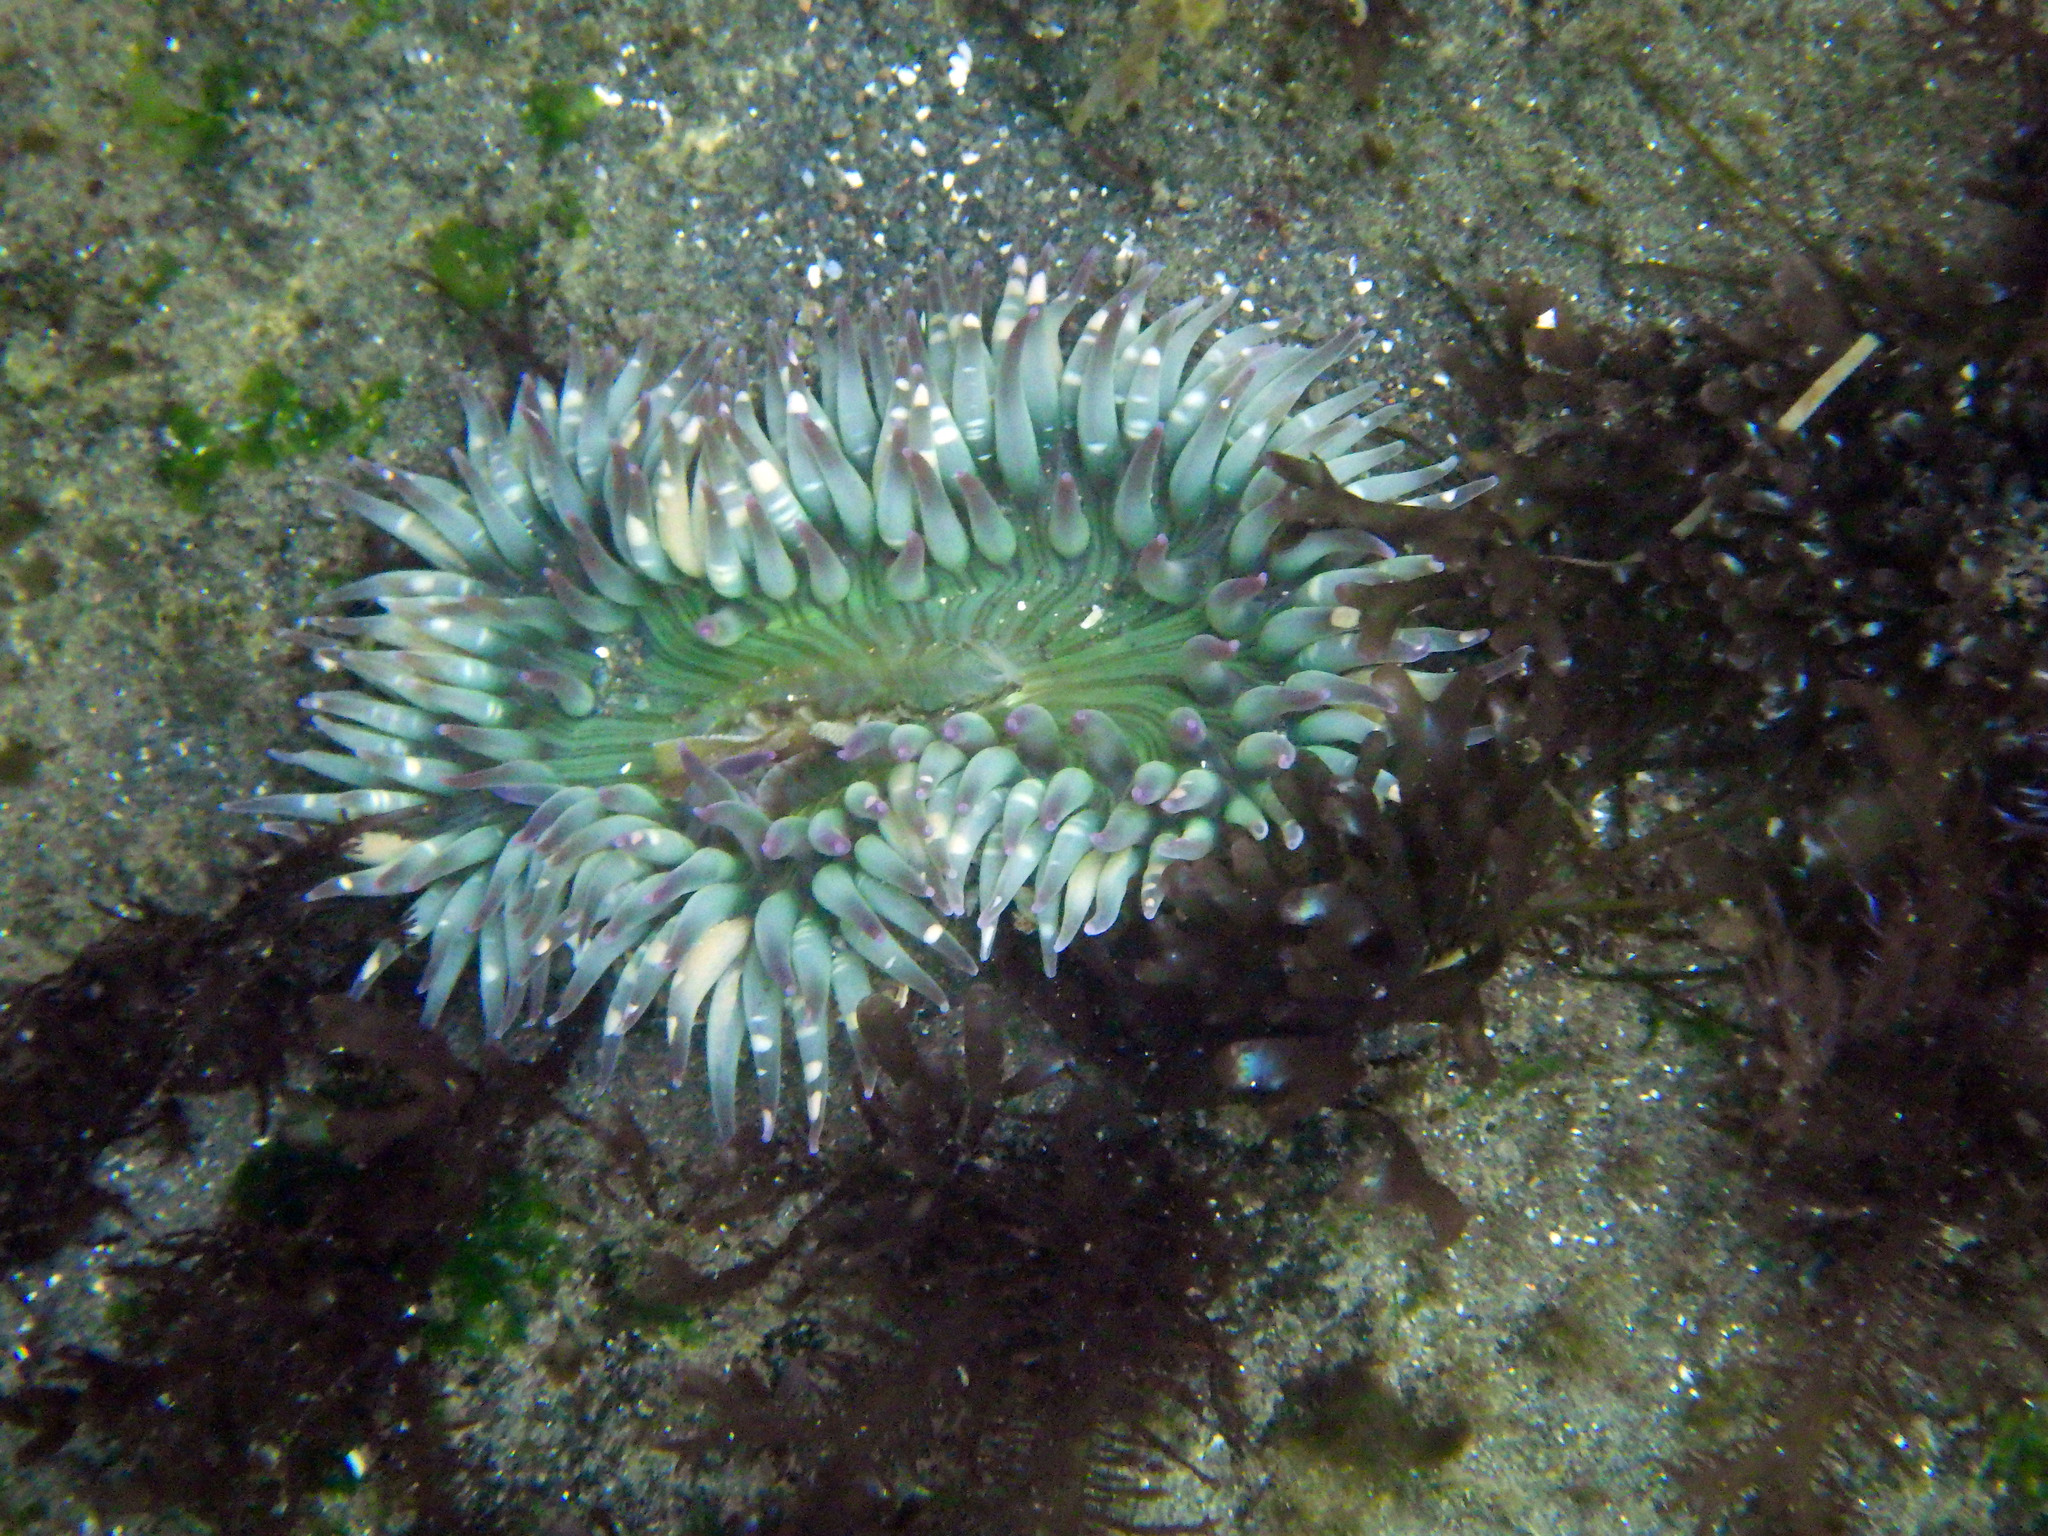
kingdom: Animalia
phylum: Cnidaria
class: Anthozoa
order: Actiniaria
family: Actiniidae
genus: Anthopleura
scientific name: Anthopleura sola
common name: Sun anemone
